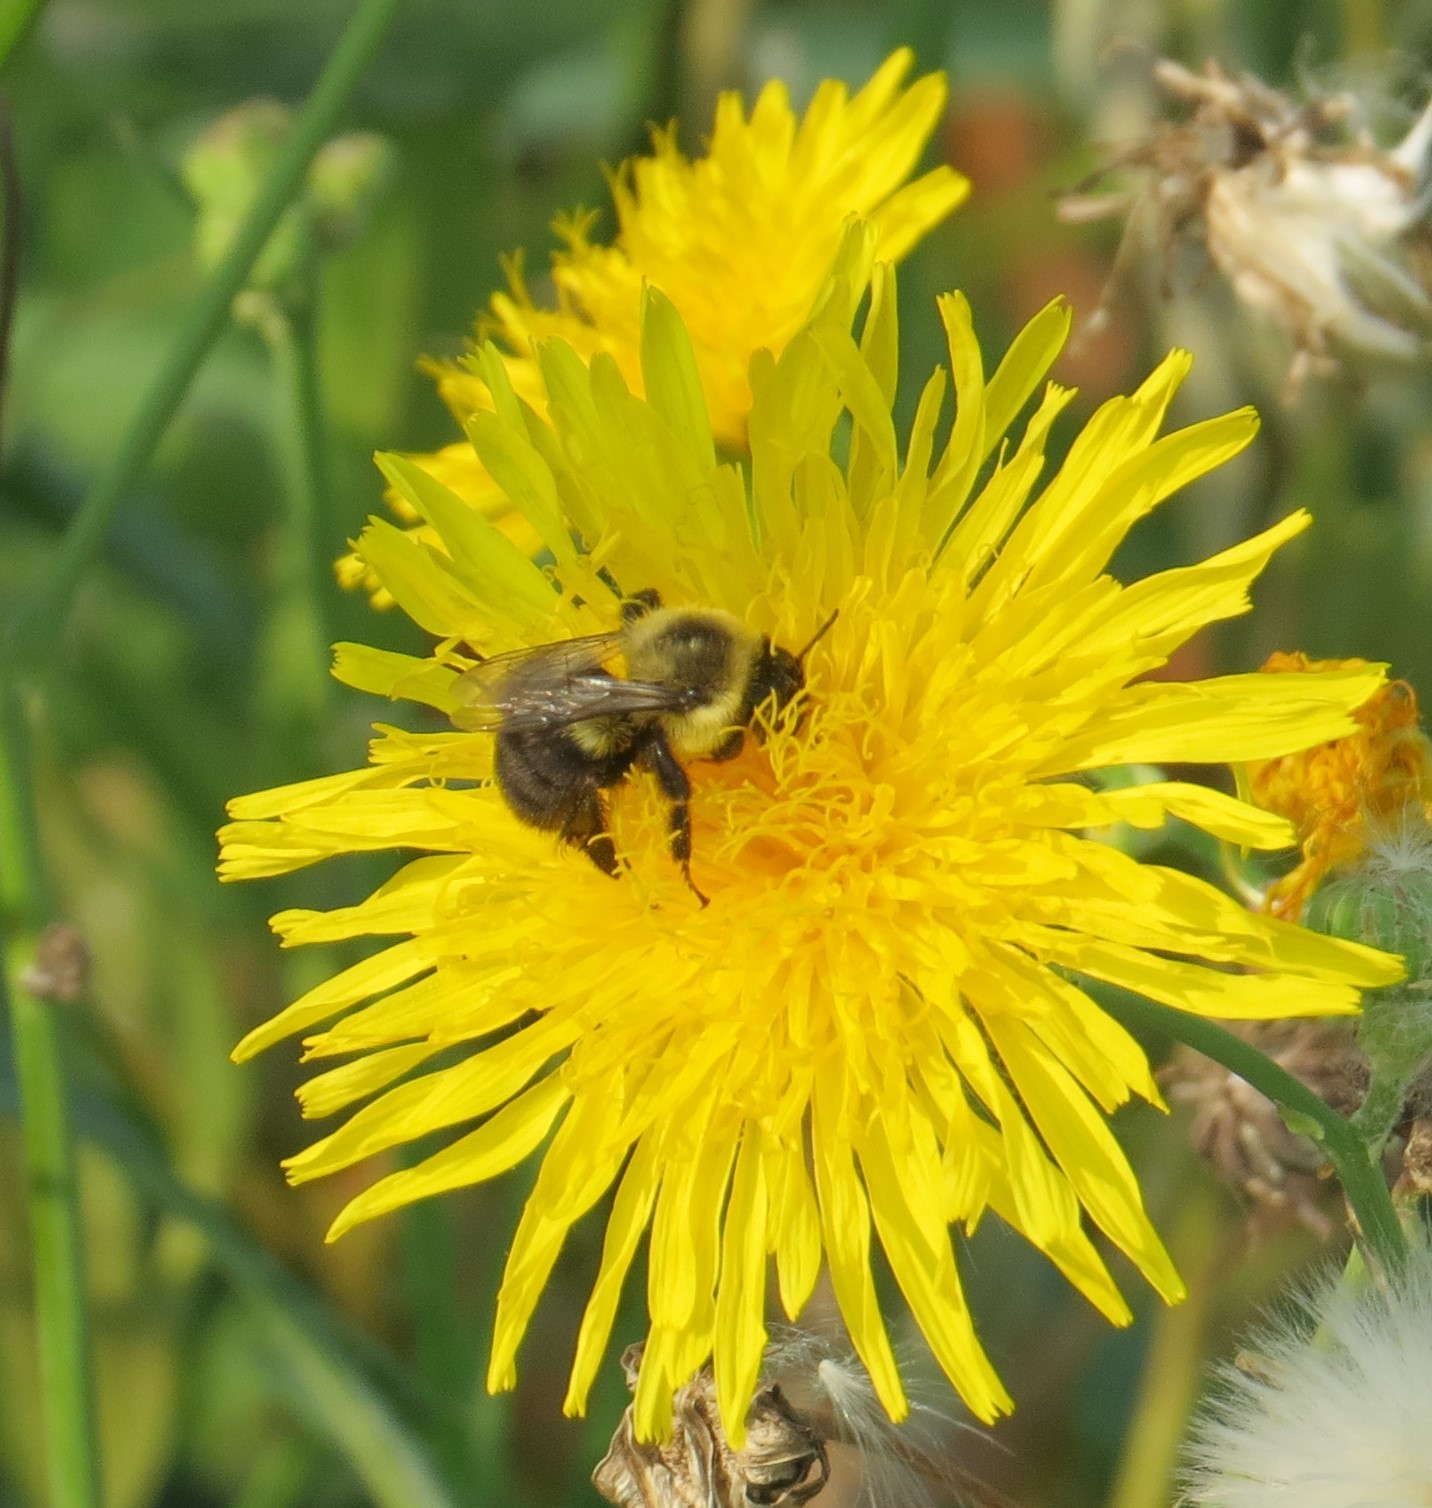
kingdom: Animalia
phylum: Arthropoda
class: Insecta
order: Hymenoptera
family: Apidae
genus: Bombus
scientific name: Bombus impatiens
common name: Common eastern bumble bee
